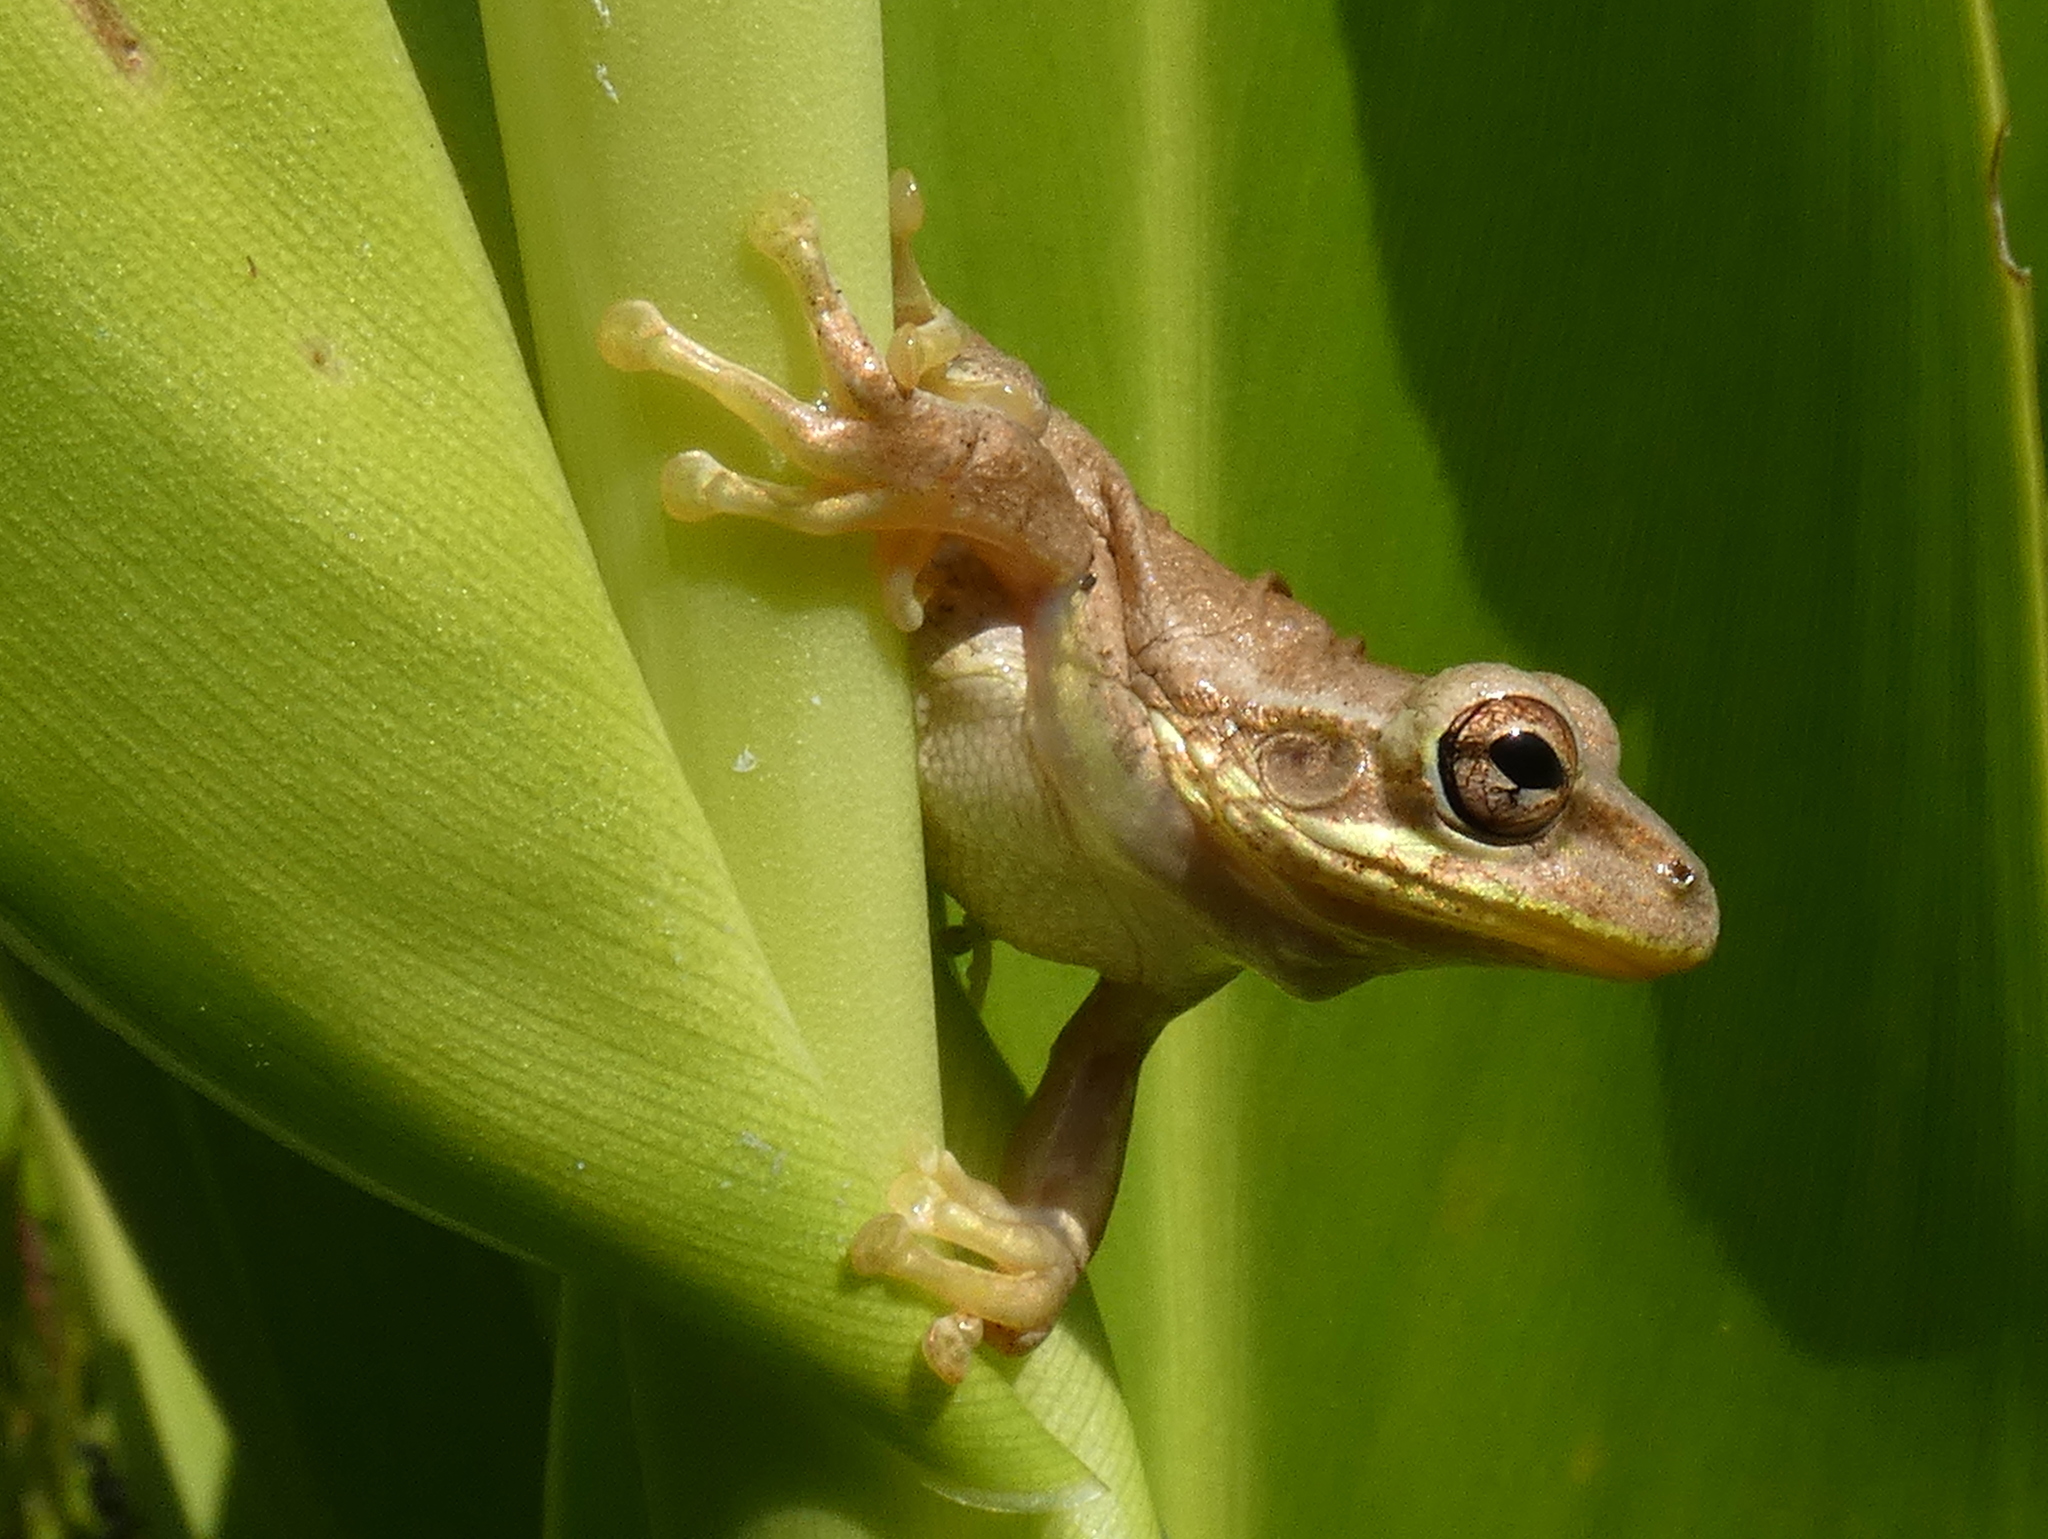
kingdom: Animalia
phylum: Chordata
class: Amphibia
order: Anura
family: Hylidae
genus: Osteopilus
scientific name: Osteopilus septentrionalis
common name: Cuban treefrog
